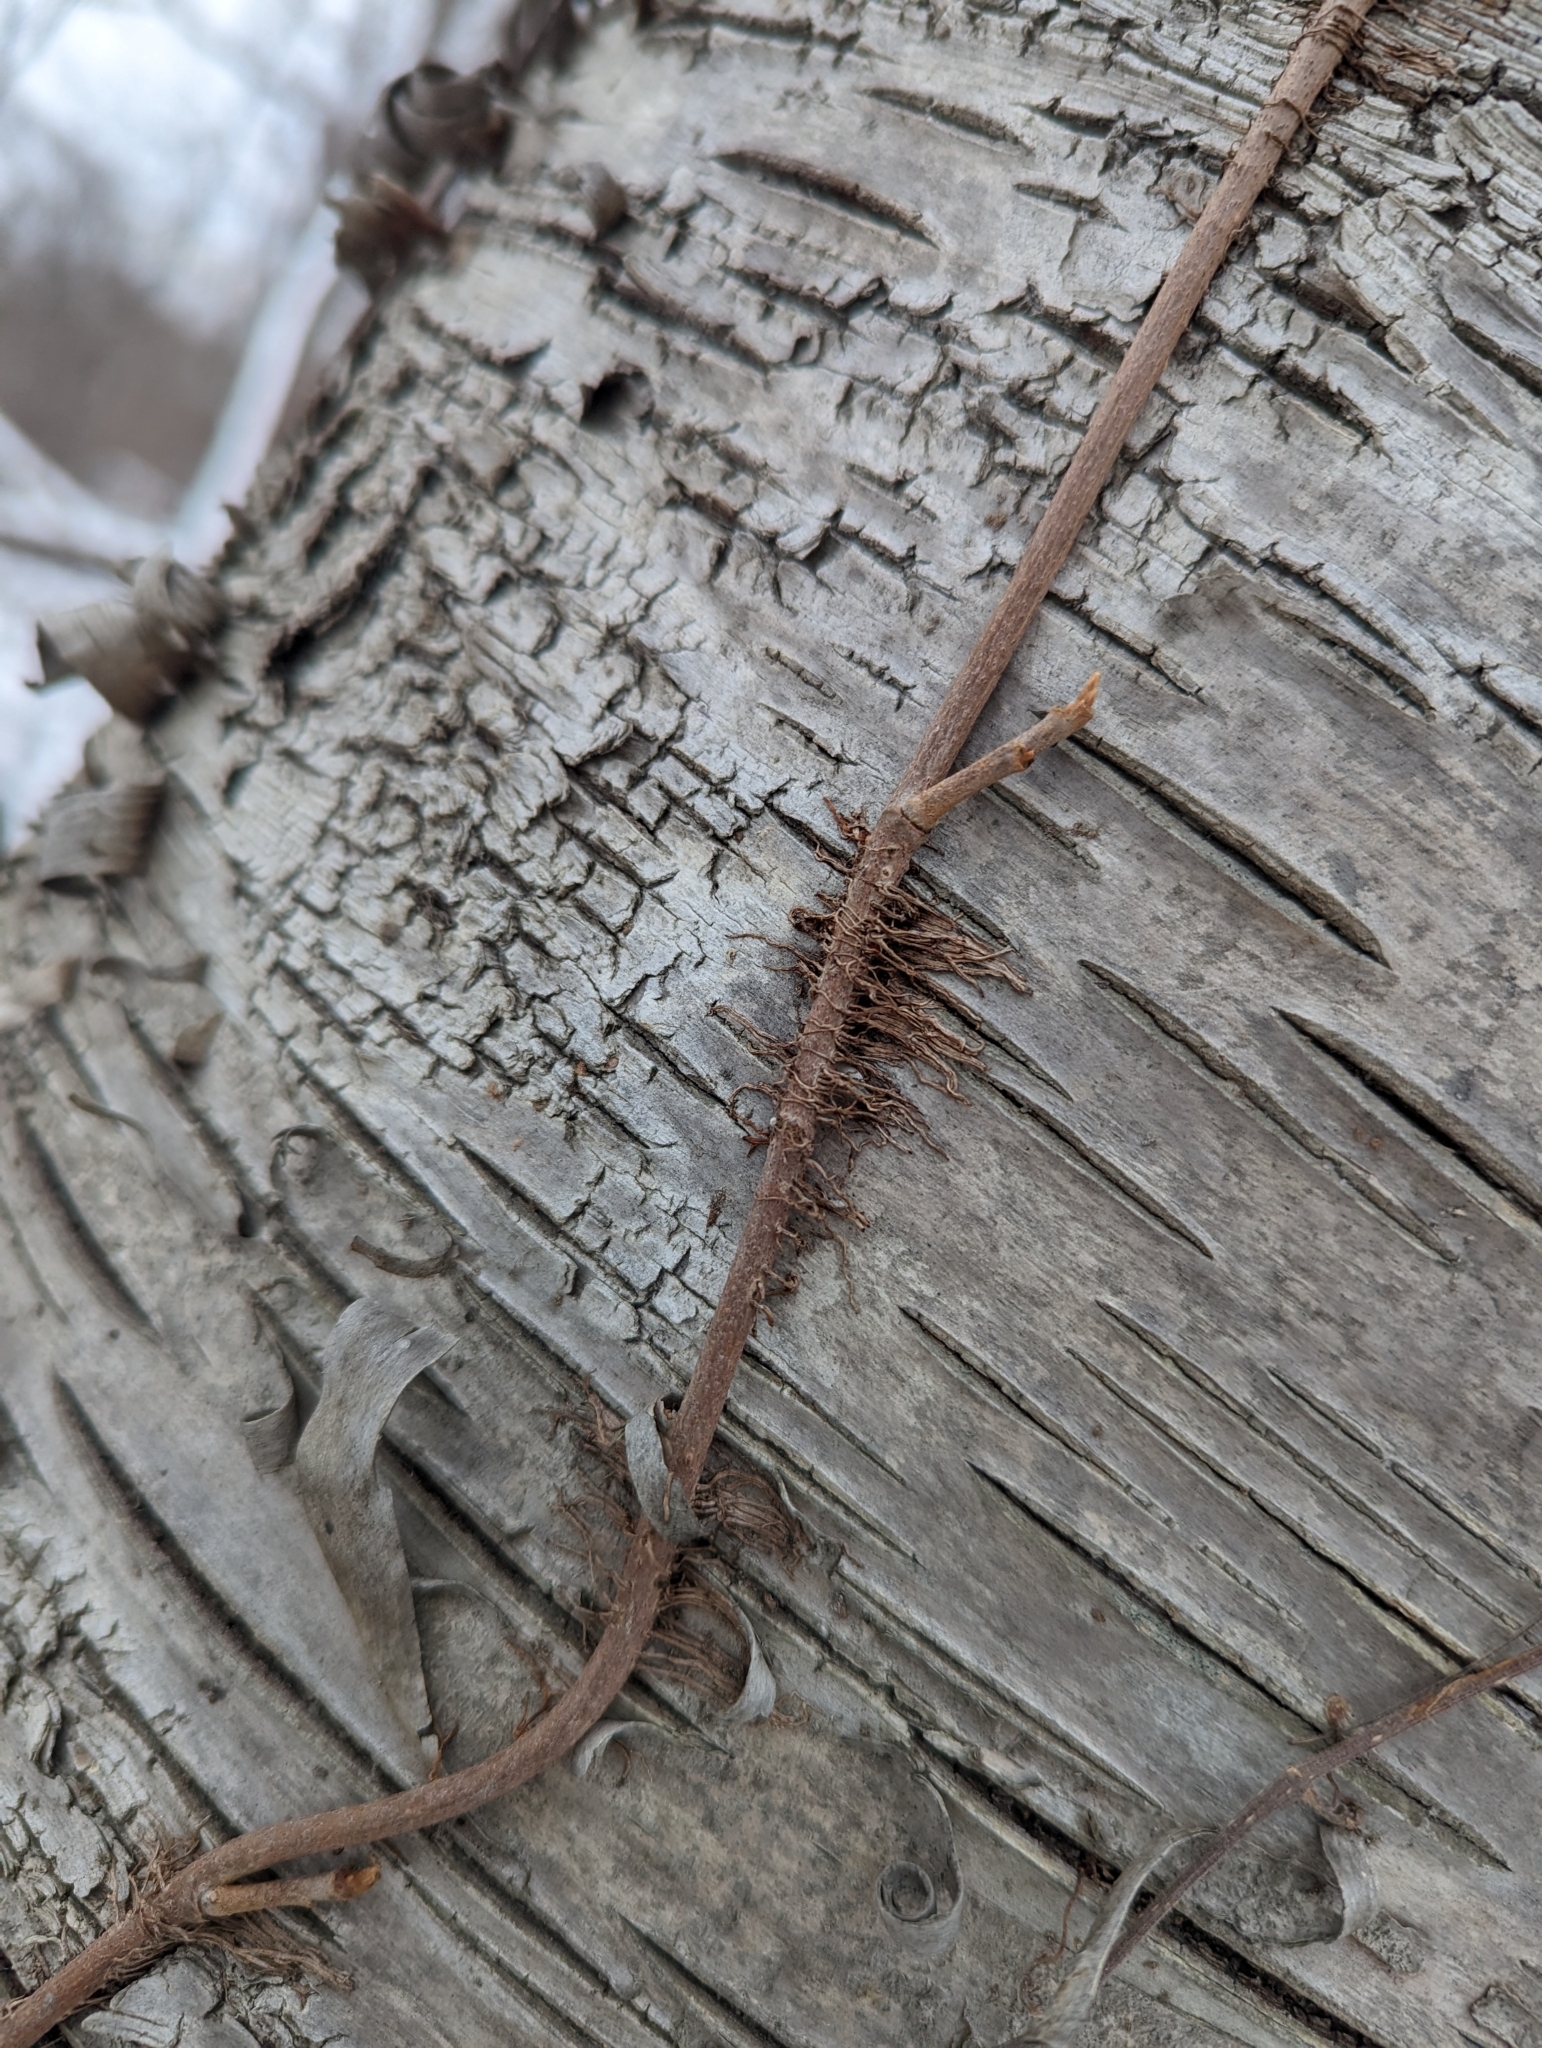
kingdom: Plantae
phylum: Tracheophyta
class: Magnoliopsida
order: Sapindales
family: Anacardiaceae
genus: Toxicodendron
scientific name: Toxicodendron radicans
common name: Poison ivy
